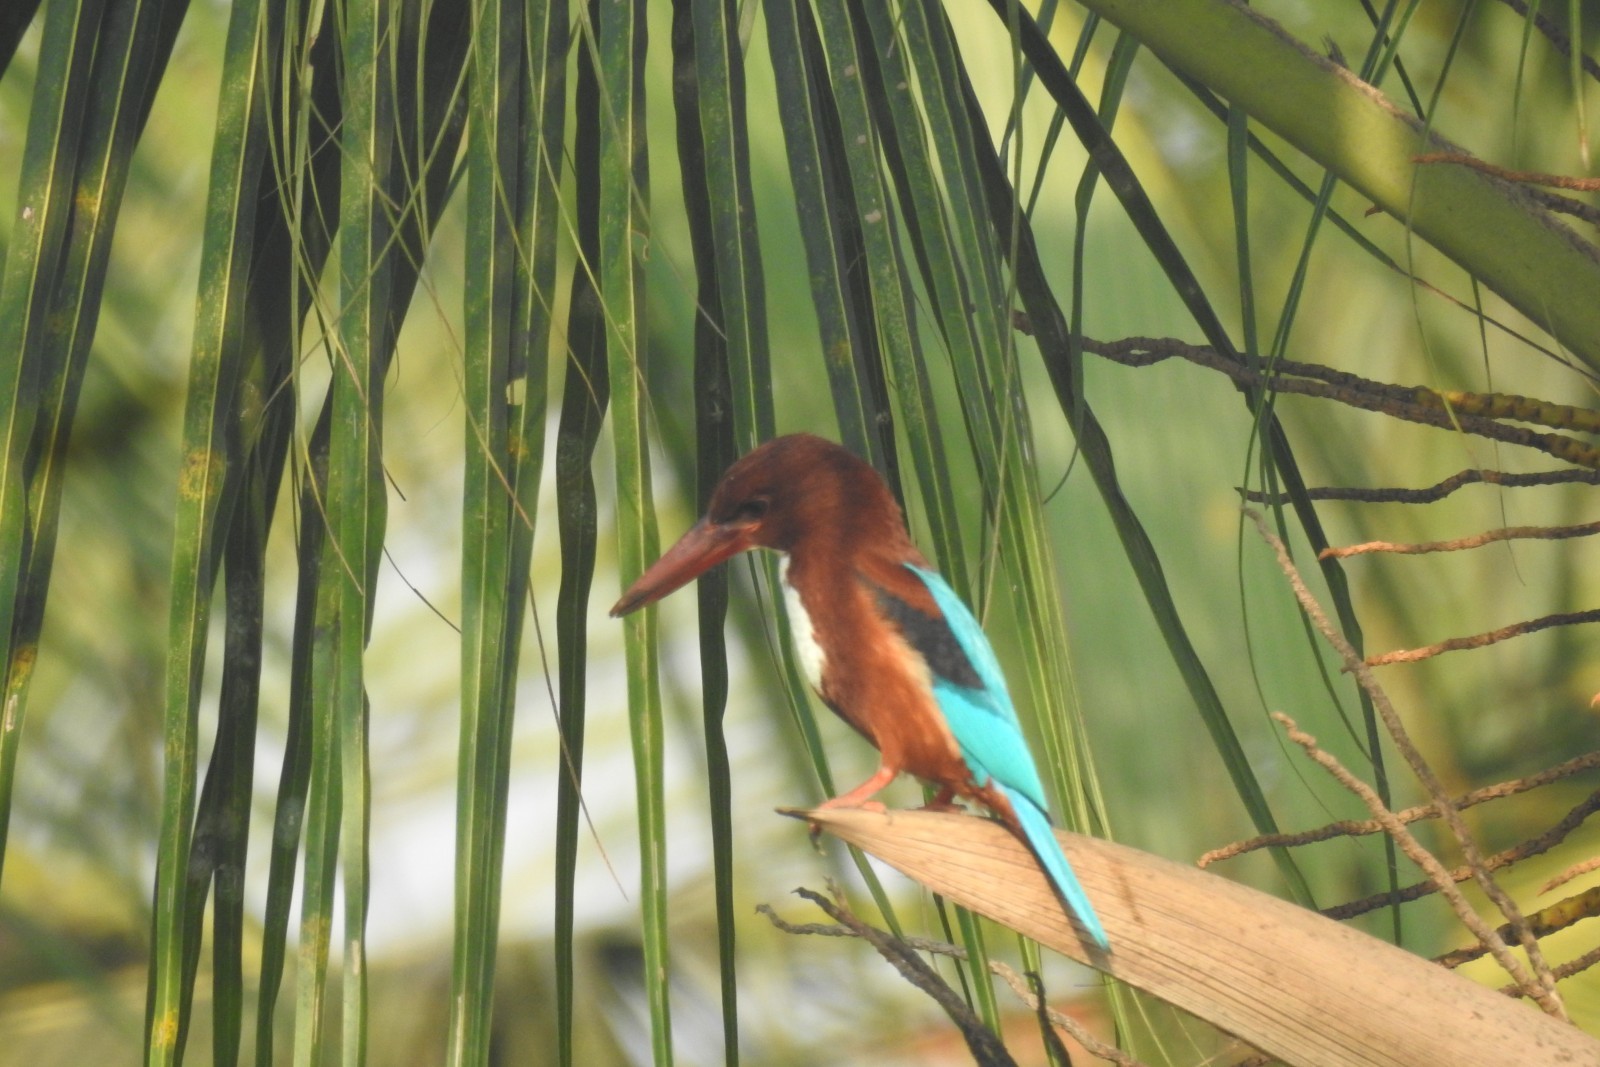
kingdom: Animalia
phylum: Chordata
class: Aves
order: Coraciiformes
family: Alcedinidae
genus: Halcyon
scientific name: Halcyon smyrnensis
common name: White-throated kingfisher
